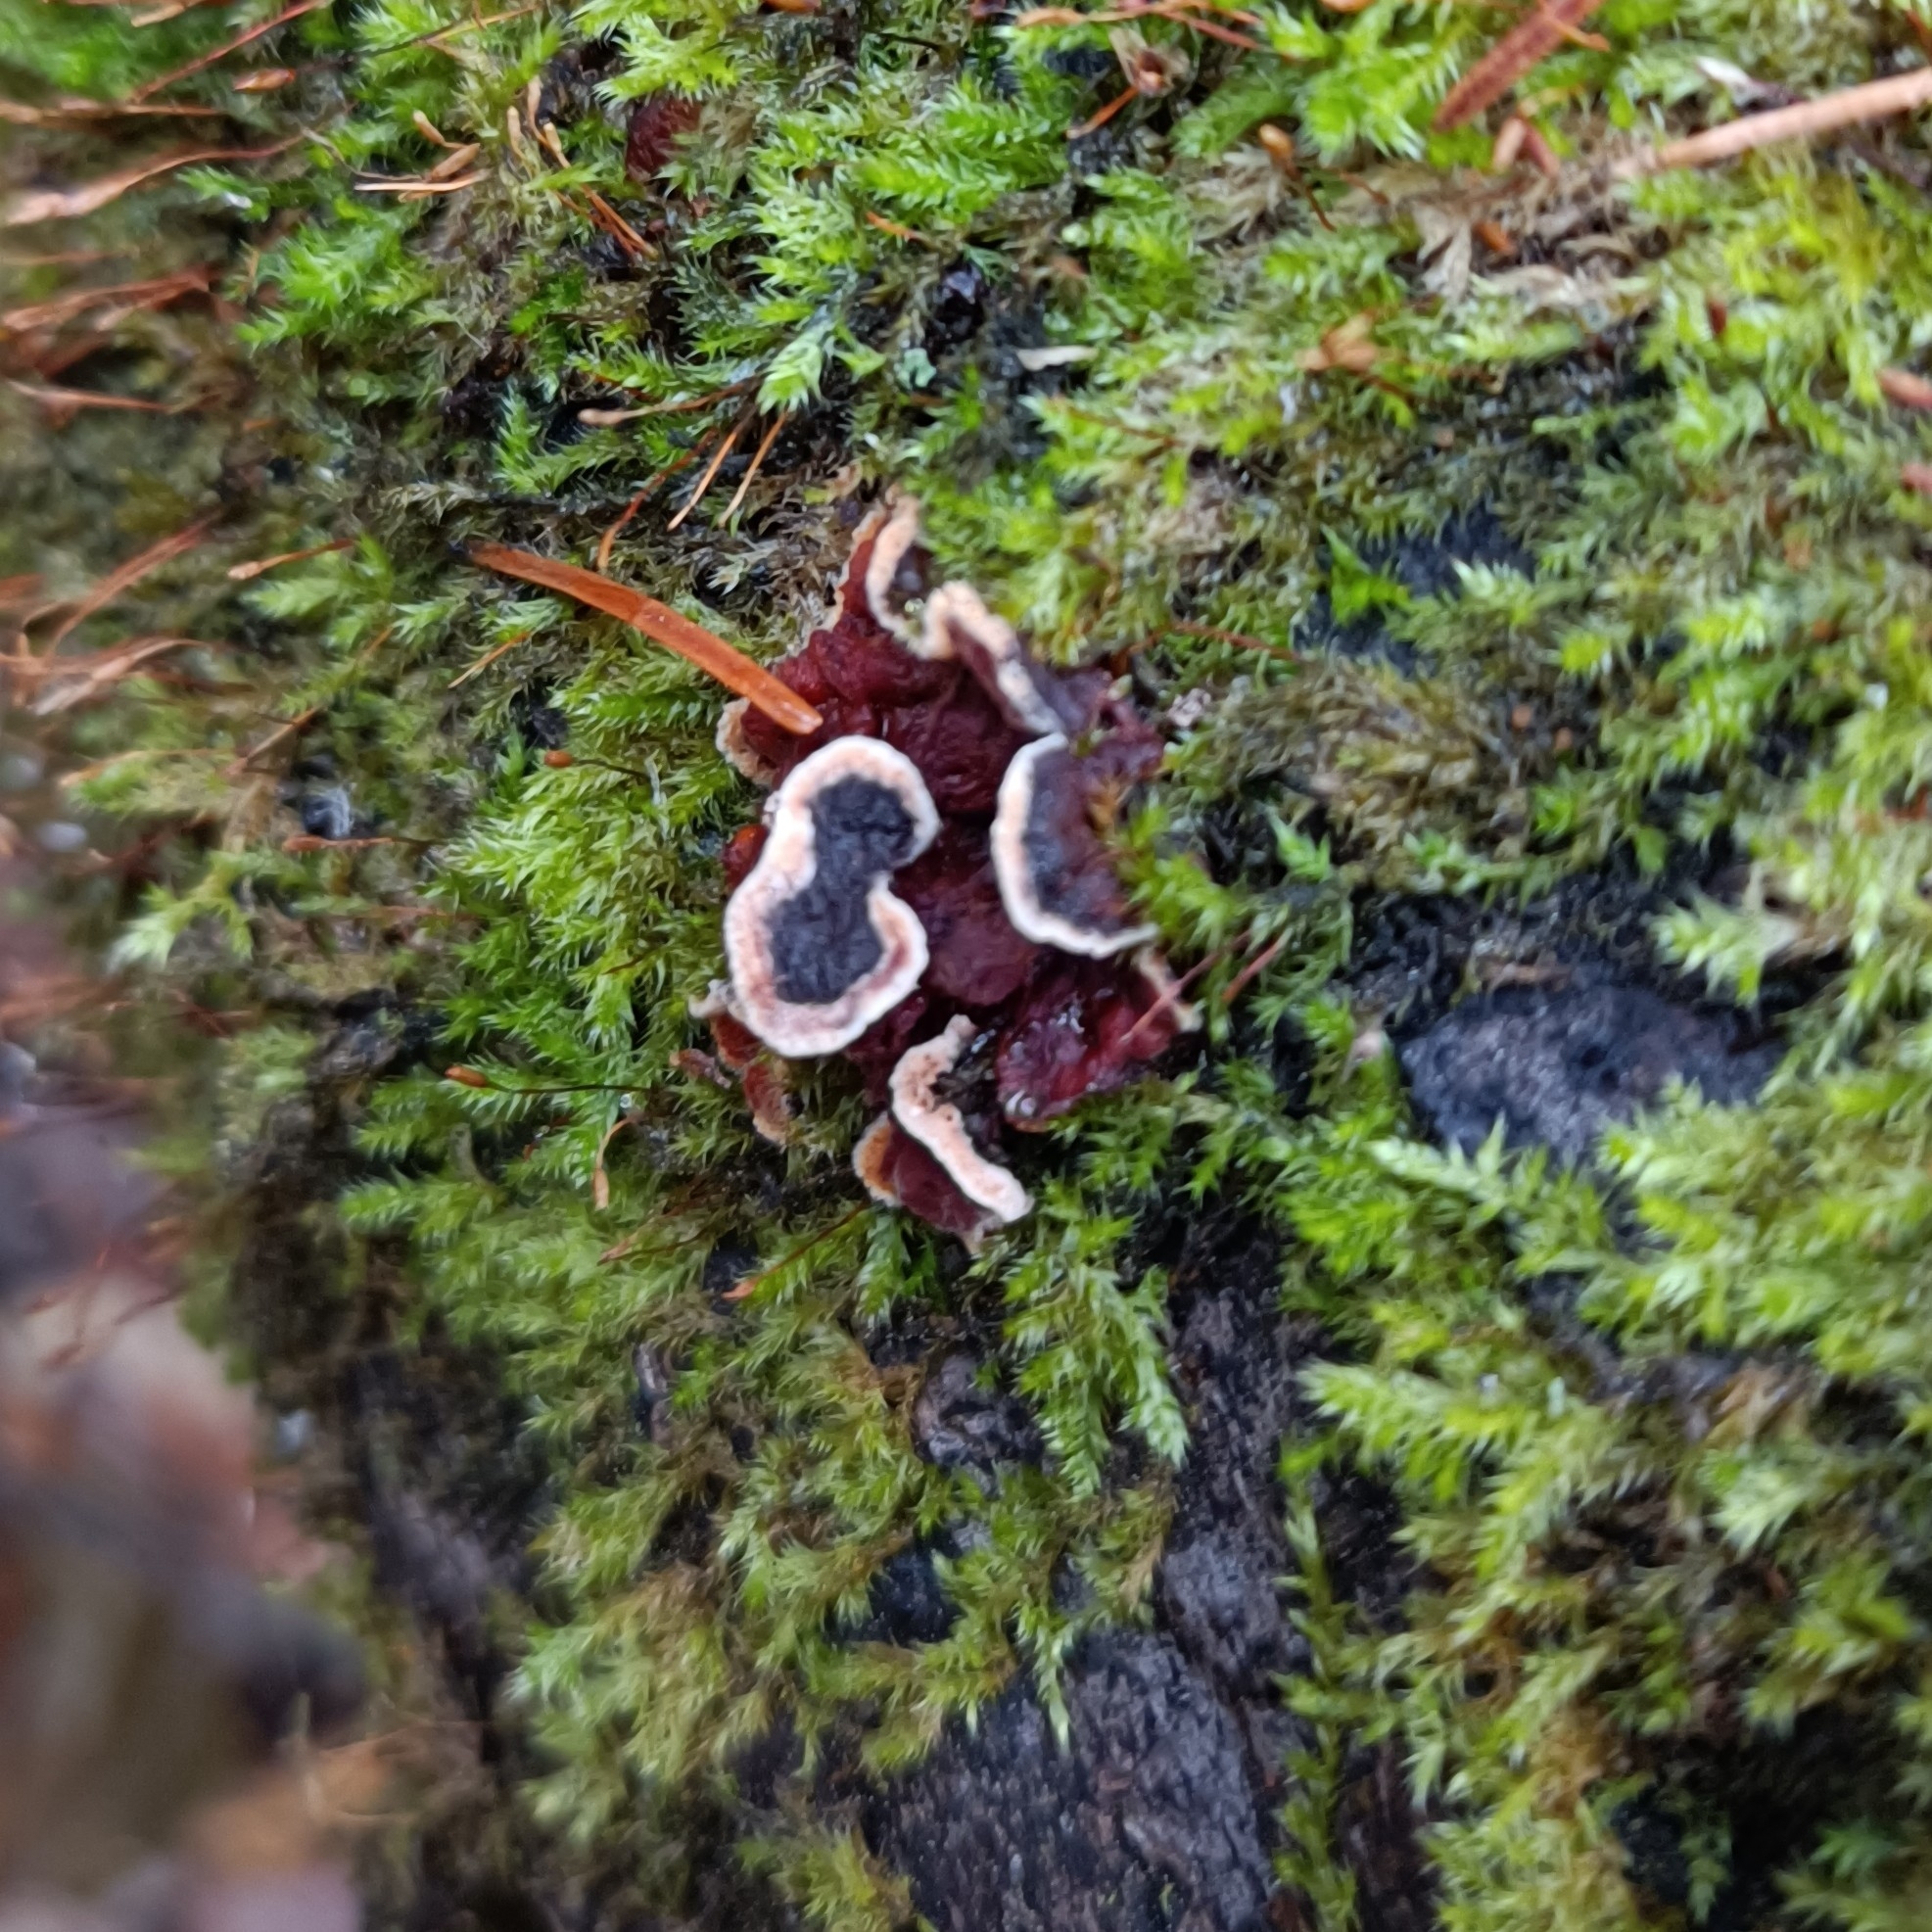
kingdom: Fungi
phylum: Basidiomycota
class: Agaricomycetes
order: Hymenochaetales
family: Hymenochaetaceae
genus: Hydnoporia
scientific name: Hydnoporia tabacina
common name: Willow glue
